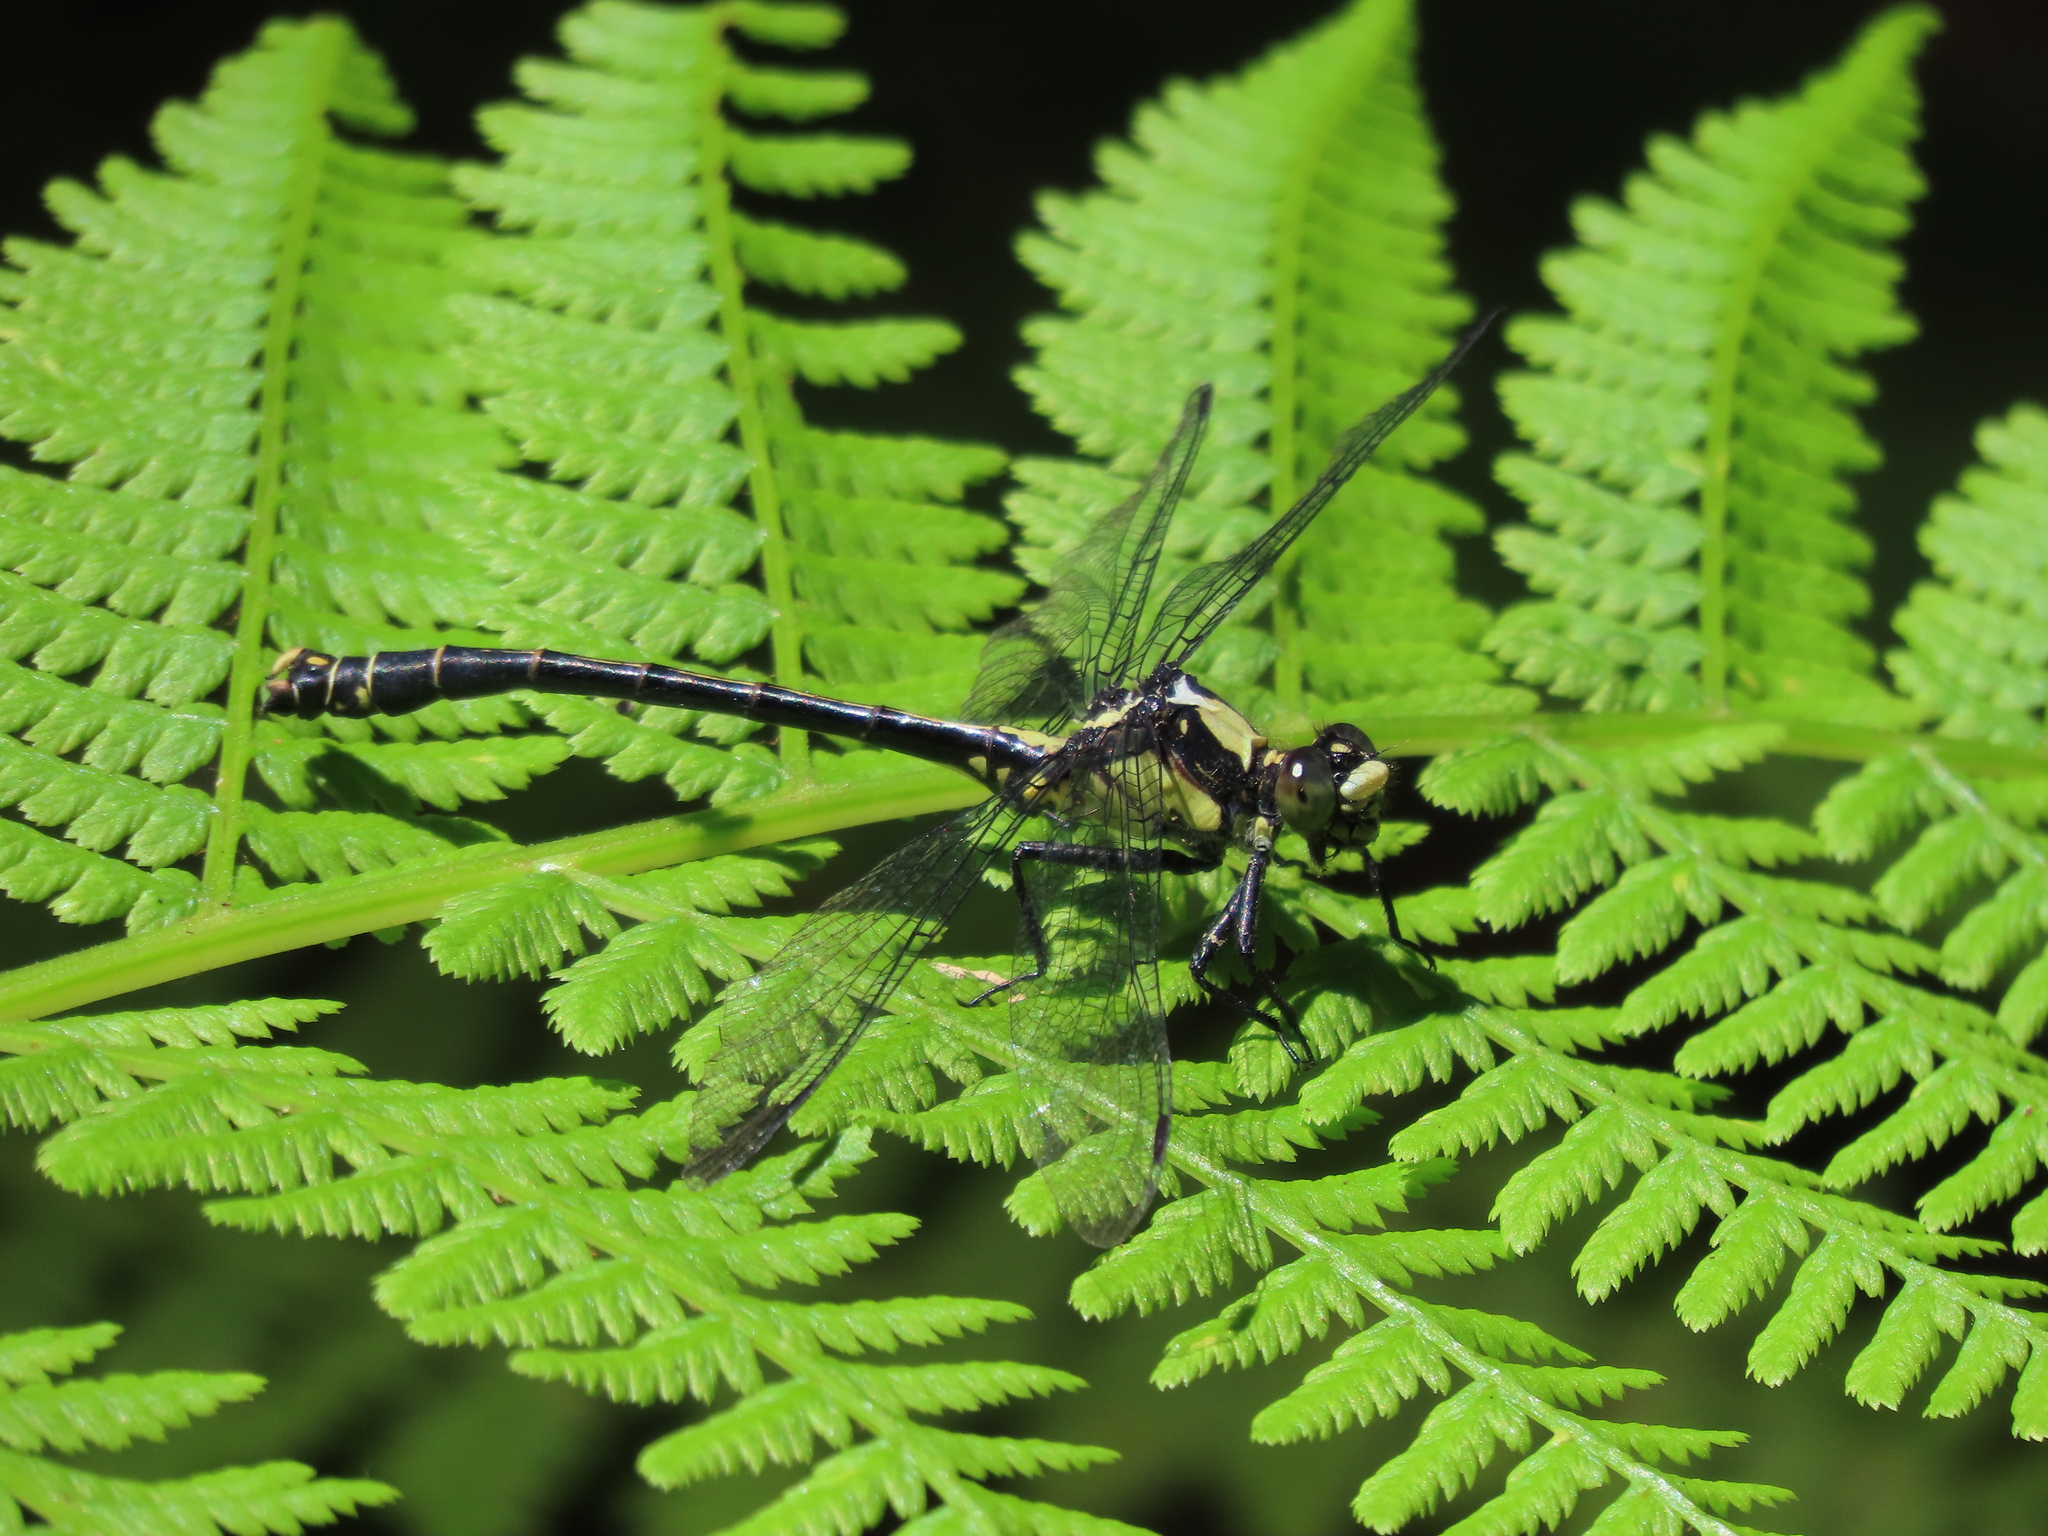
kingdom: Animalia
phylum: Arthropoda
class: Insecta
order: Odonata
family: Gomphidae
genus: Octogomphus
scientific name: Octogomphus specularis
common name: Grappletail
